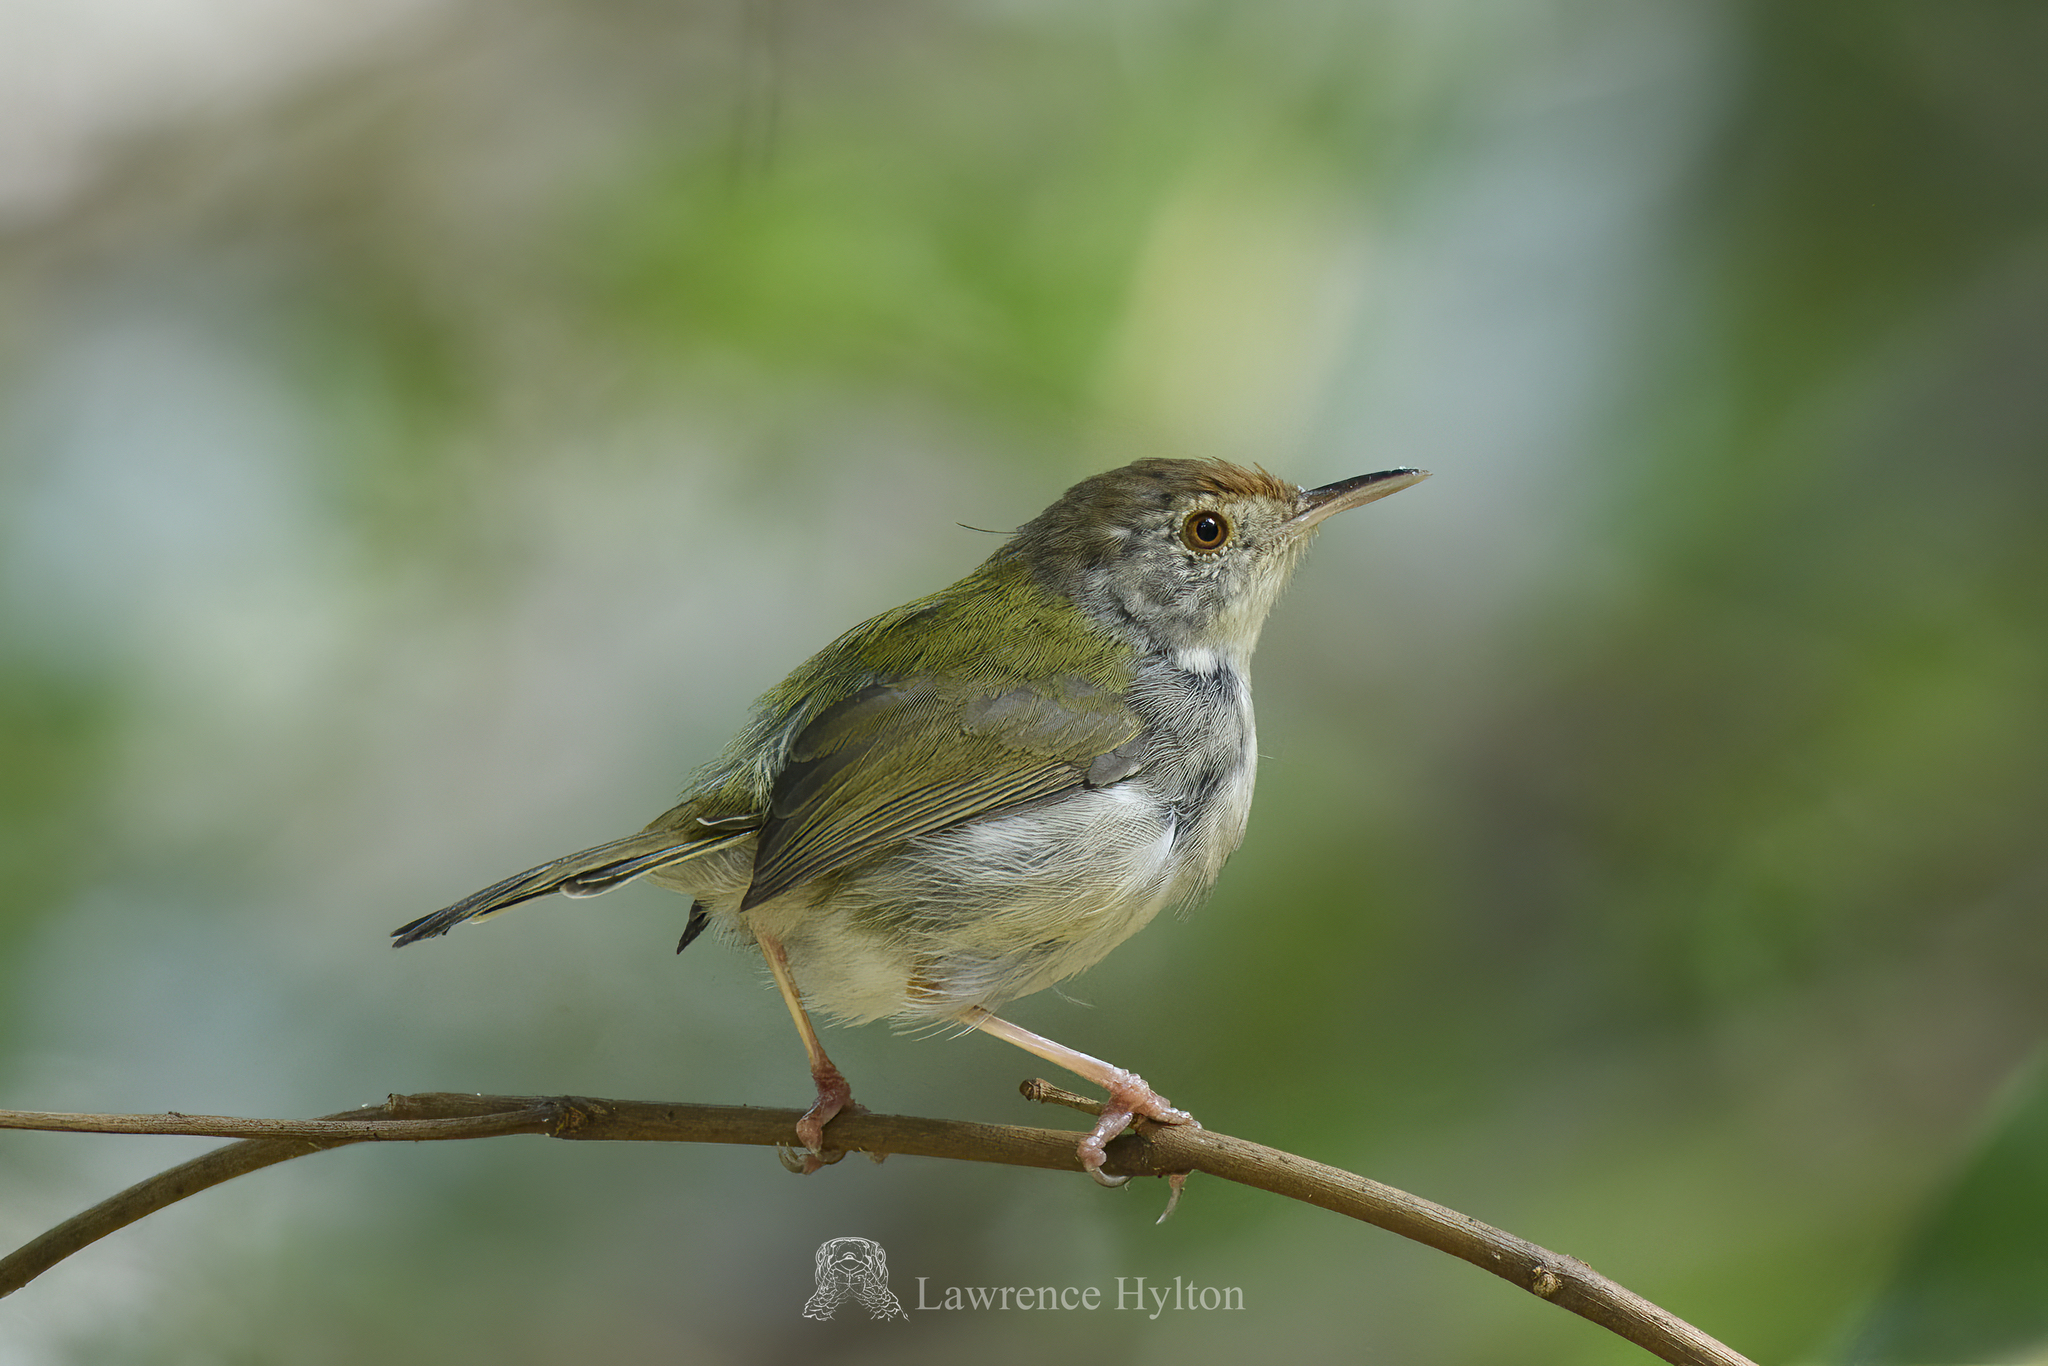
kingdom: Animalia
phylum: Chordata
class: Aves
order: Passeriformes
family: Cisticolidae
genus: Orthotomus
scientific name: Orthotomus sutorius
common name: Common tailorbird
